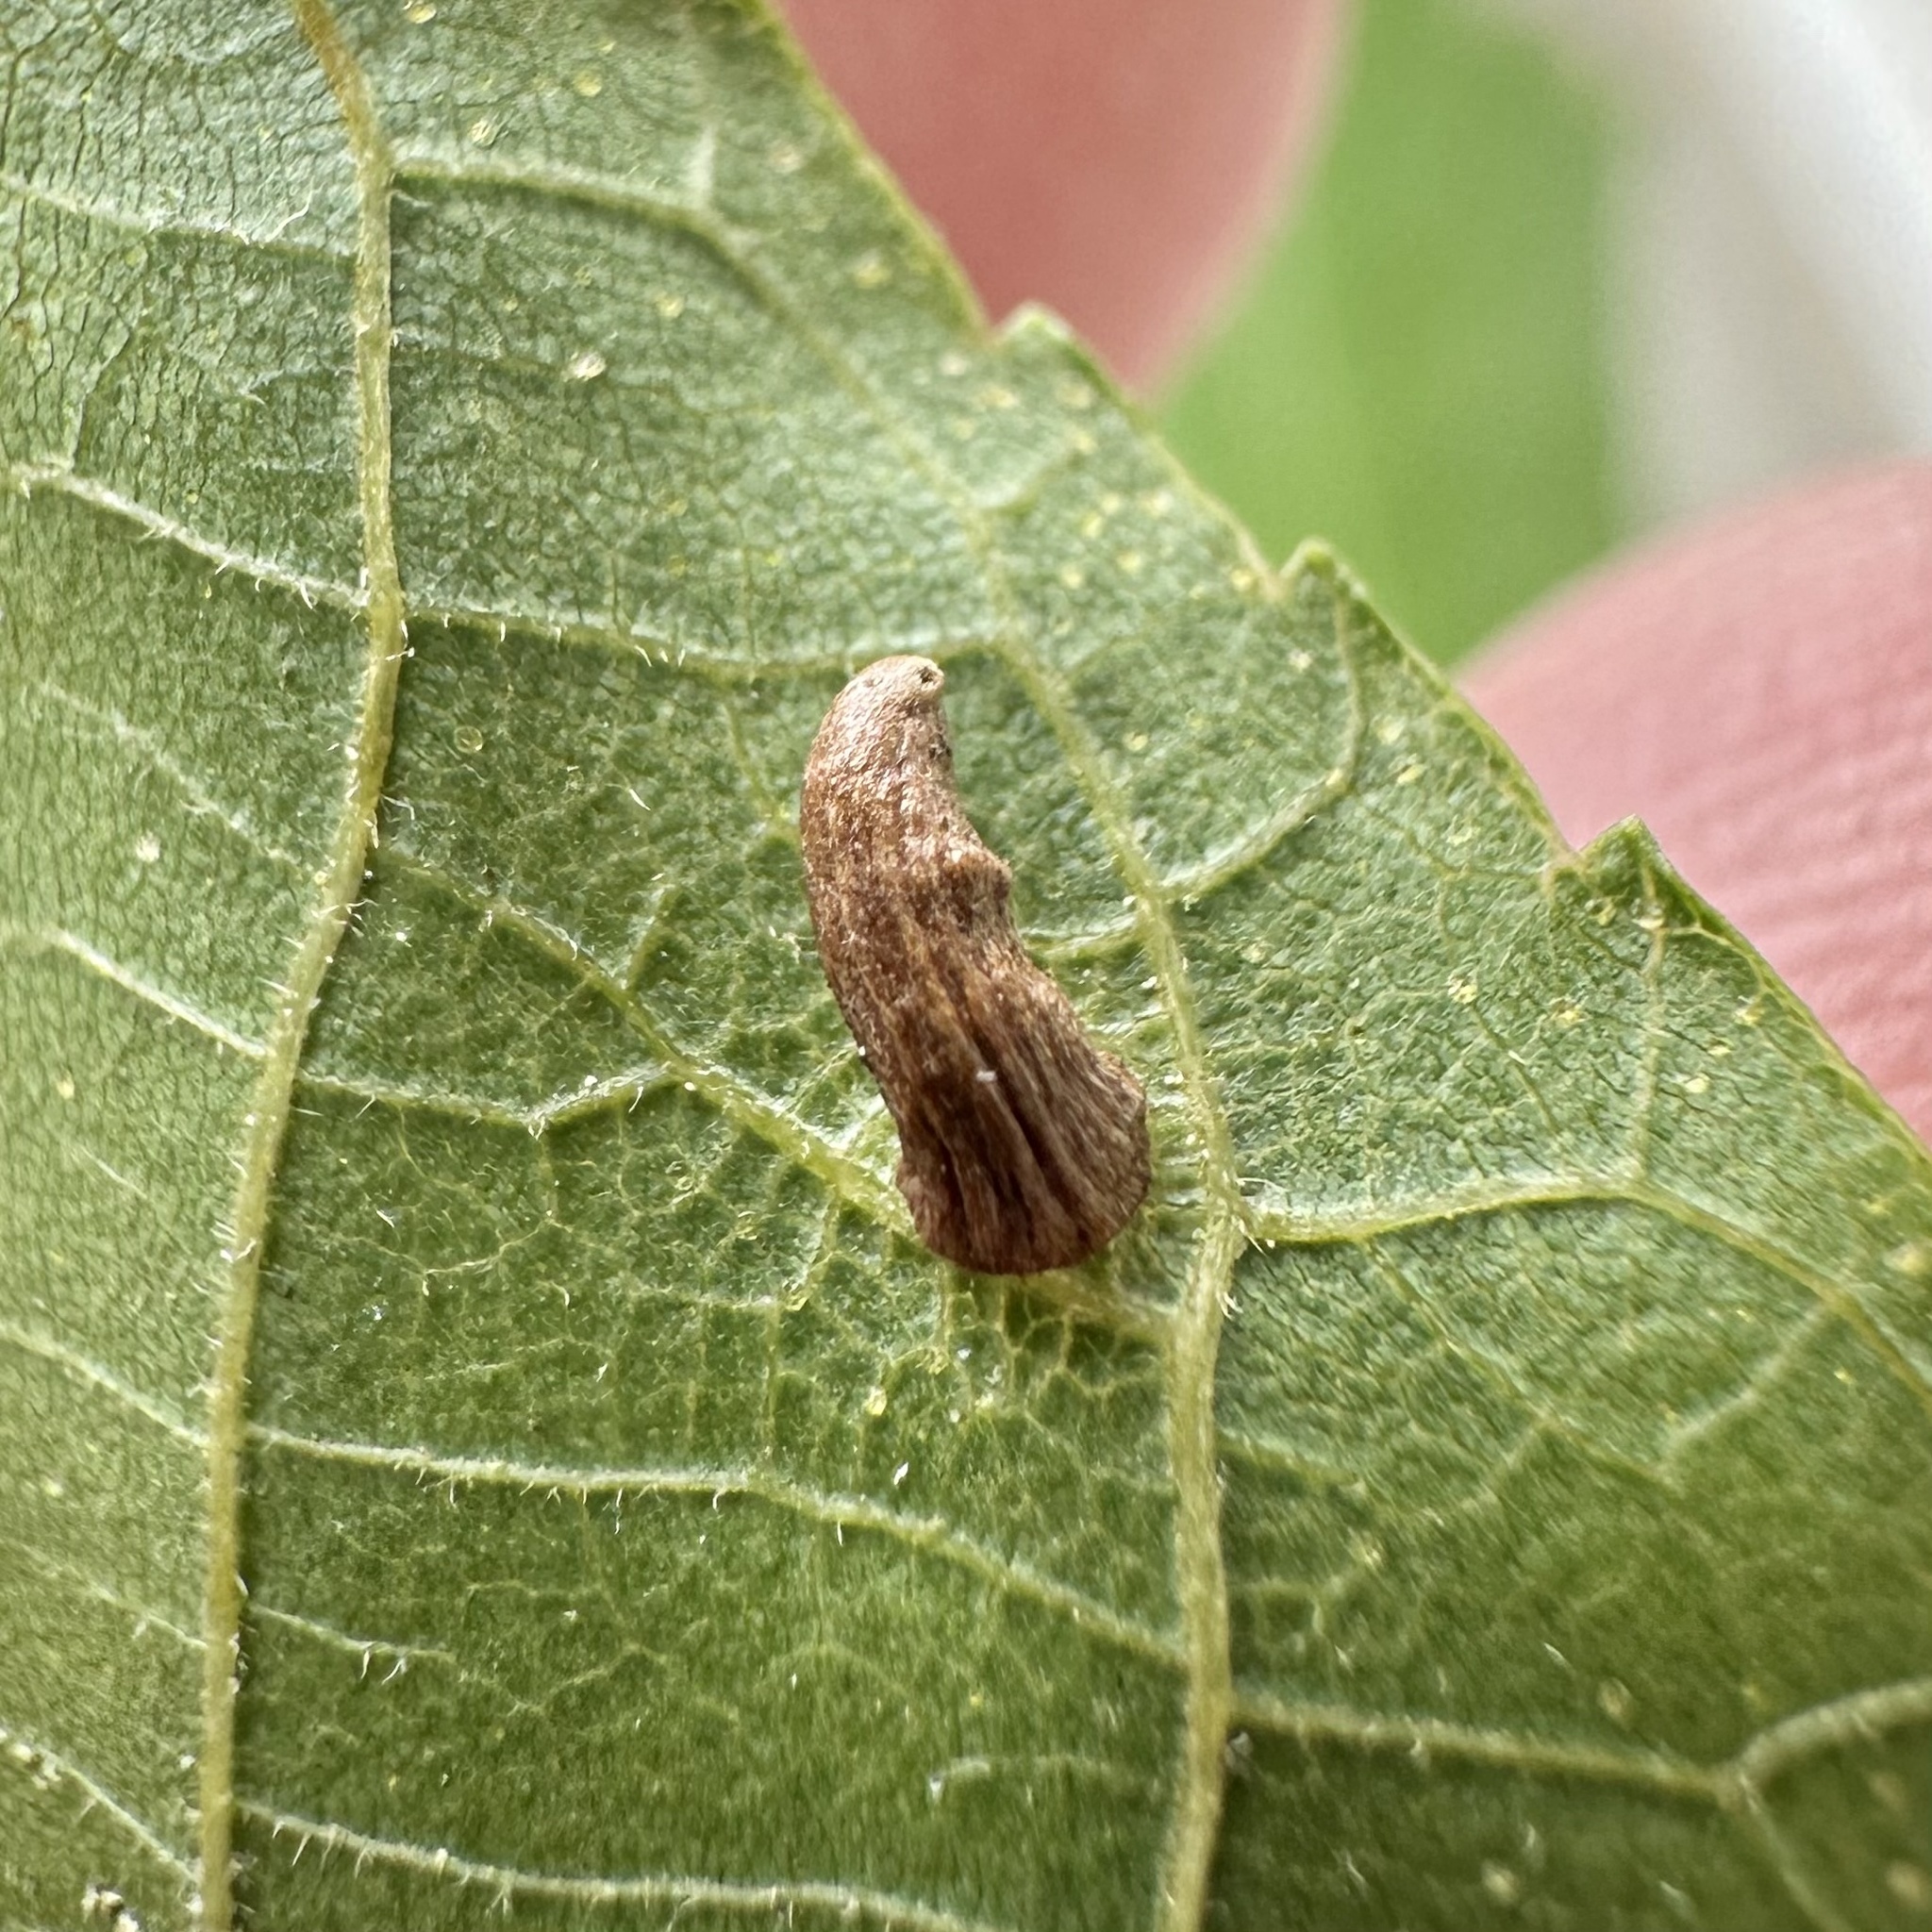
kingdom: Animalia
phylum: Arthropoda
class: Insecta
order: Diptera
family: Cecidomyiidae
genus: Caryomyia
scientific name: Caryomyia striolata
